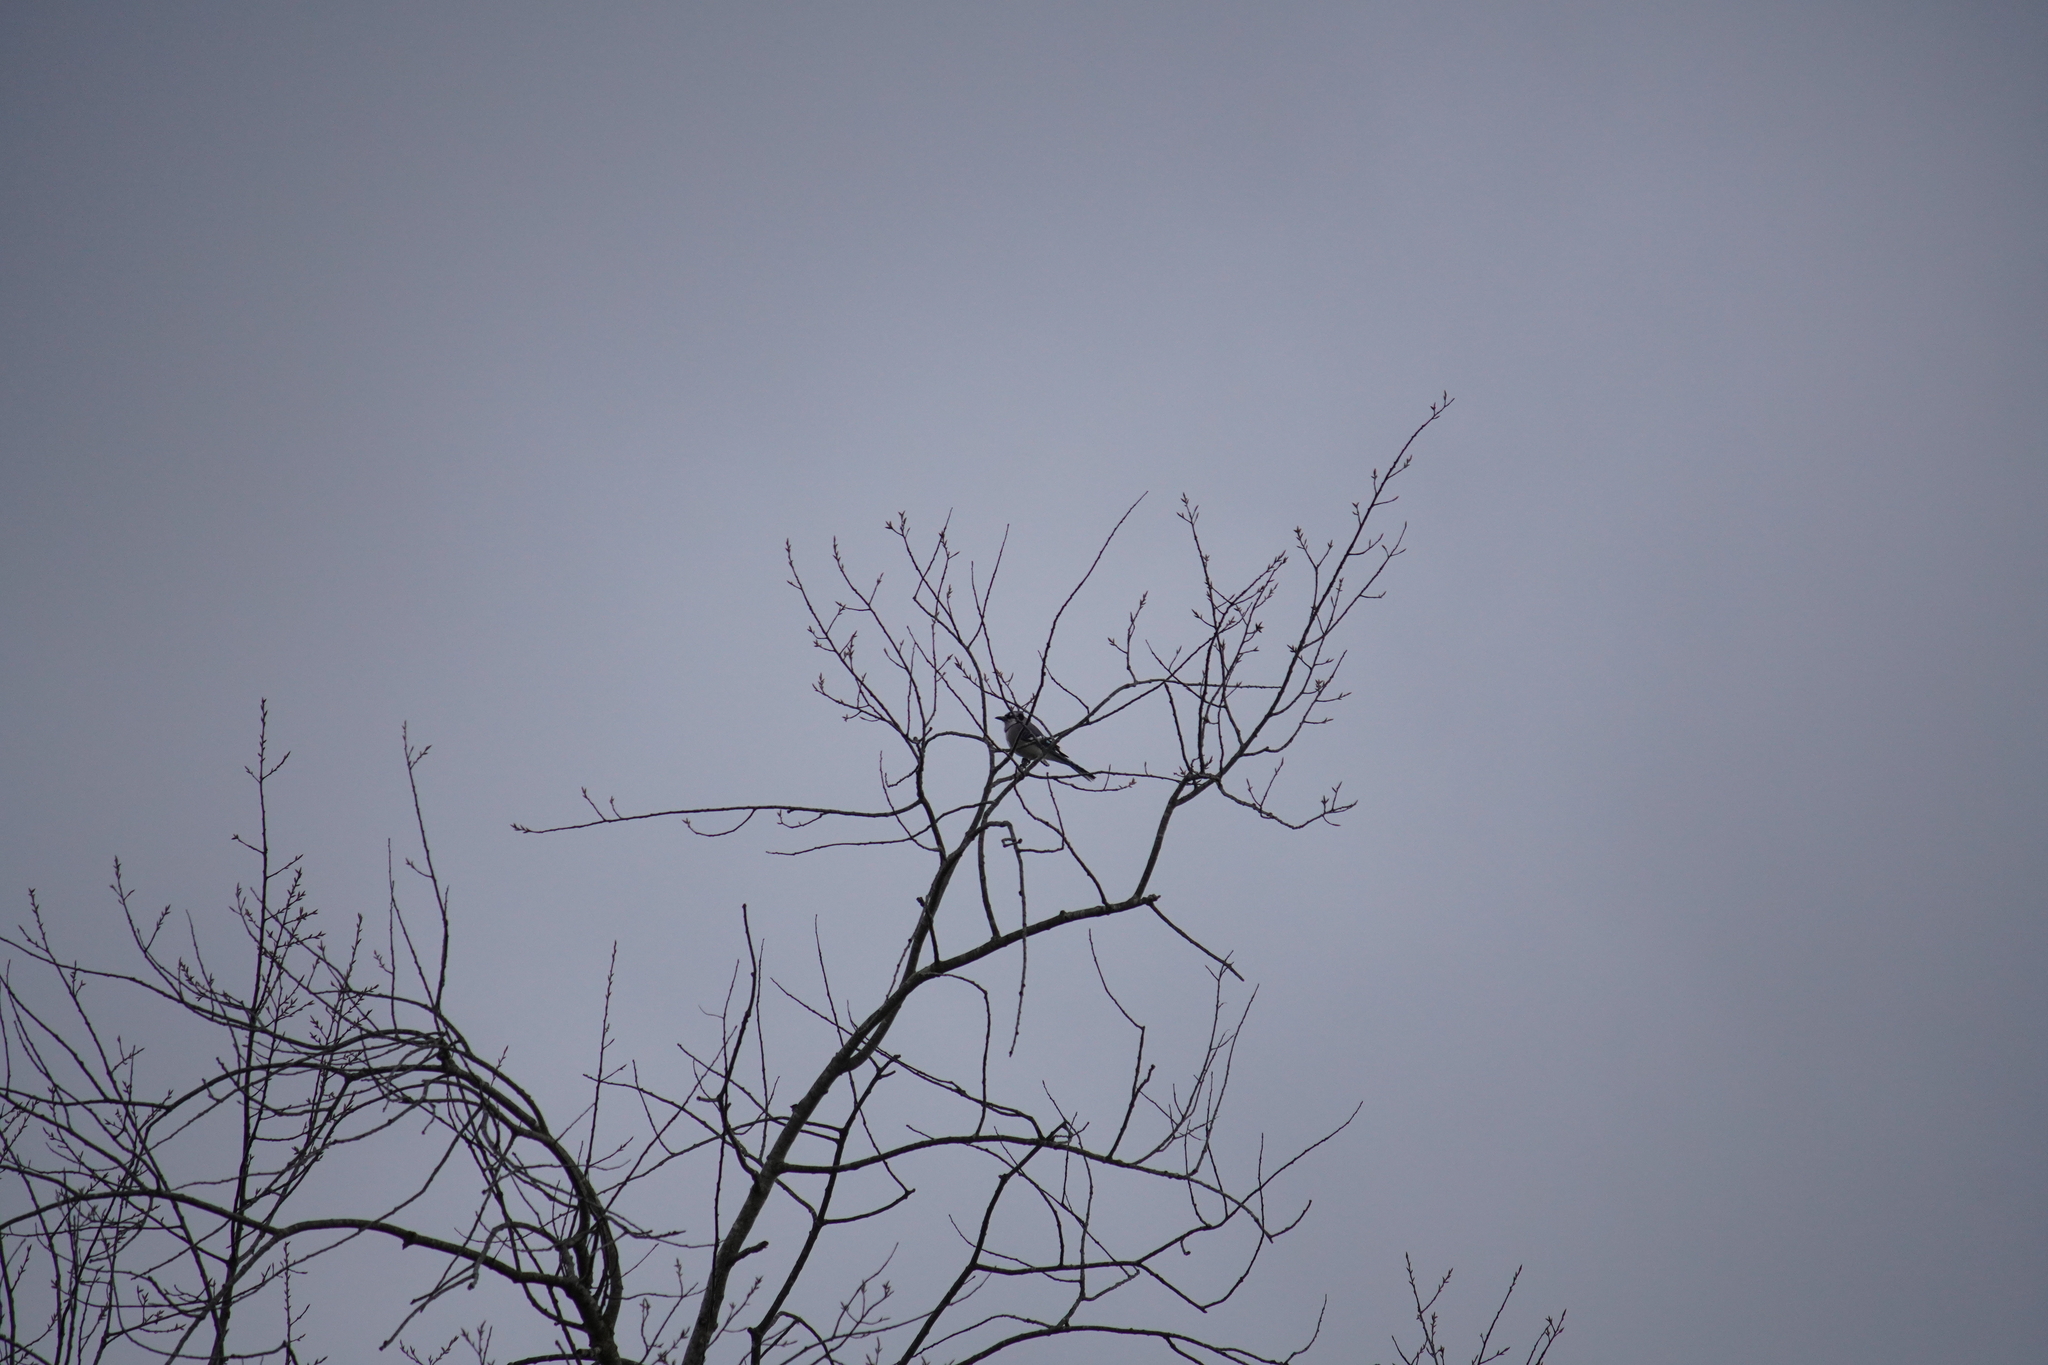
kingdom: Animalia
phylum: Chordata
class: Aves
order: Passeriformes
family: Corvidae
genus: Cyanocitta
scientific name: Cyanocitta cristata
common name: Blue jay
